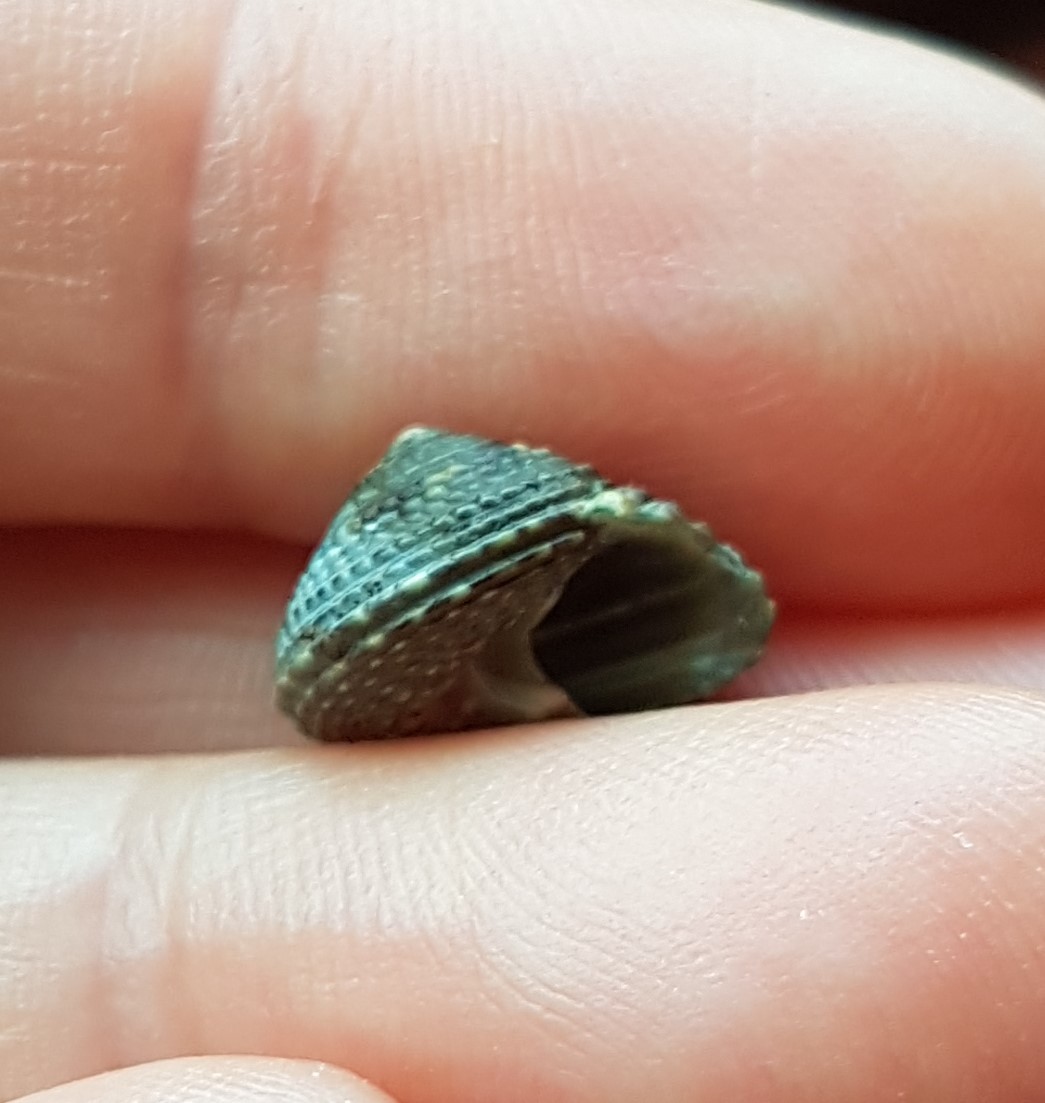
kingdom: Animalia
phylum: Mollusca
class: Gastropoda
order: Trochida
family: Tegulidae
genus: Tegula
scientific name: Tegula verrucosa
